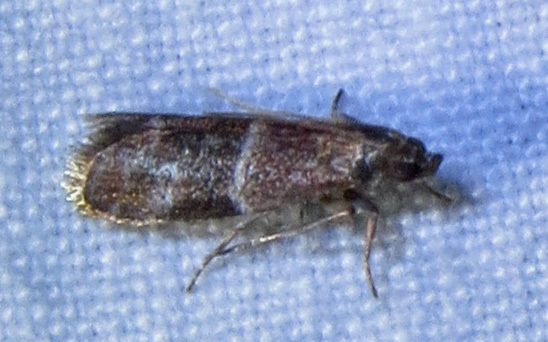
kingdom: Animalia
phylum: Arthropoda
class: Insecta
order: Lepidoptera
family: Pyralidae
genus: Moodna
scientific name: Moodna ostrinella
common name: Darker moodna moth
